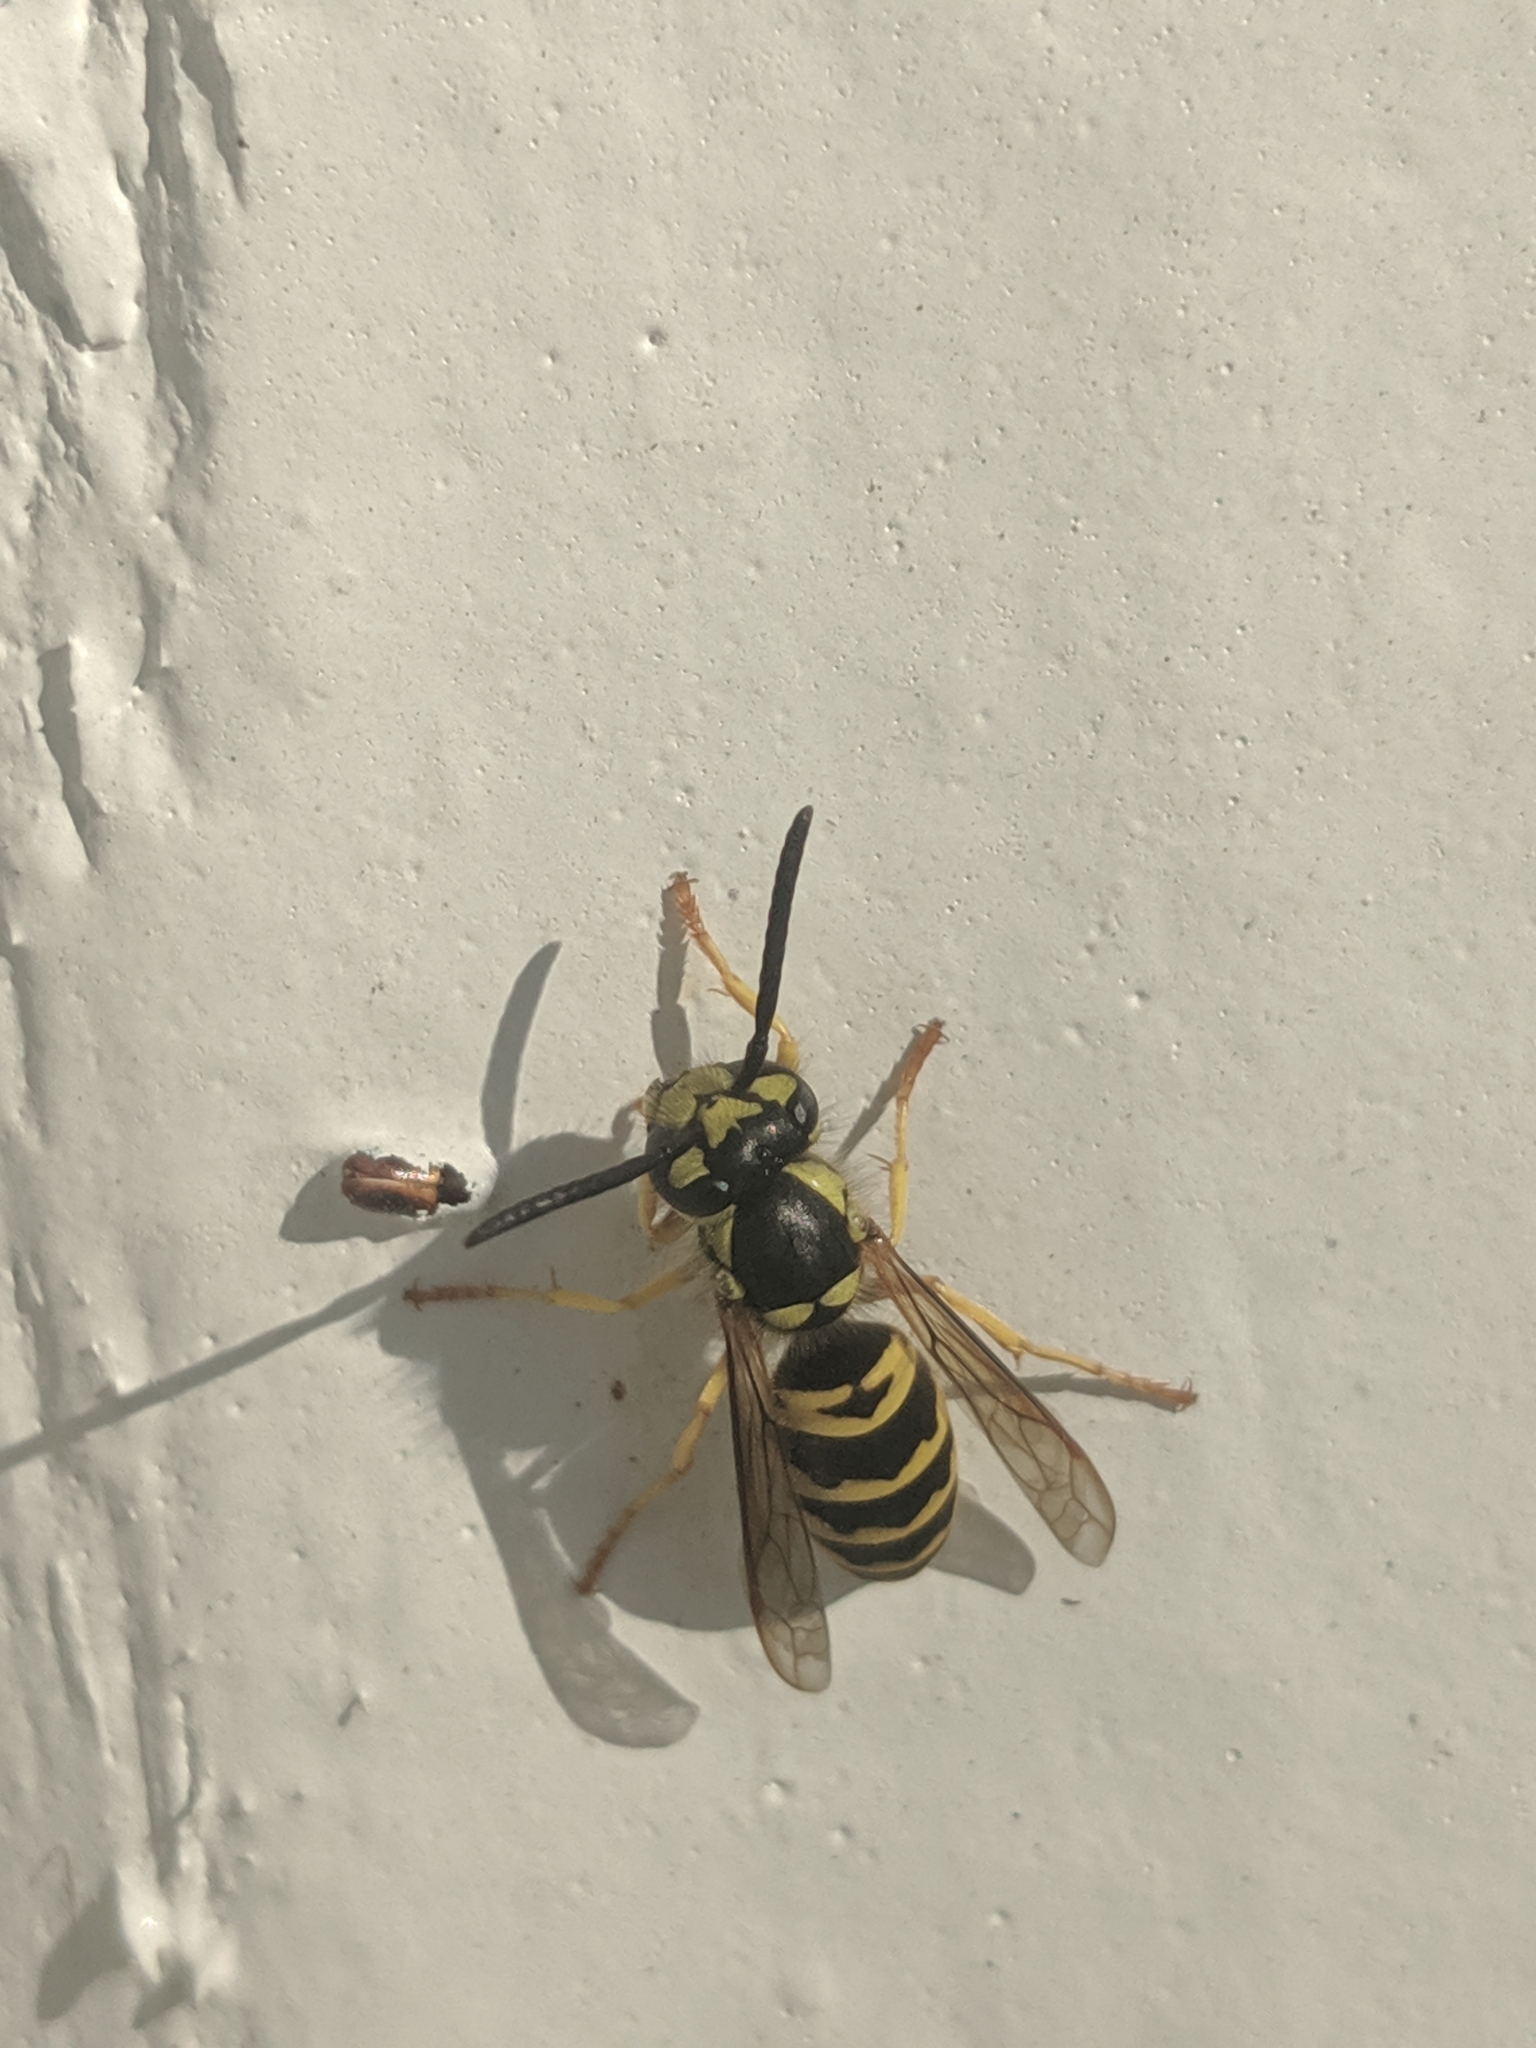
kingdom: Animalia
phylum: Arthropoda
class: Insecta
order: Hymenoptera
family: Vespidae
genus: Vespula
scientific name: Vespula maculifrons
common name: Eastern yellowjacket
